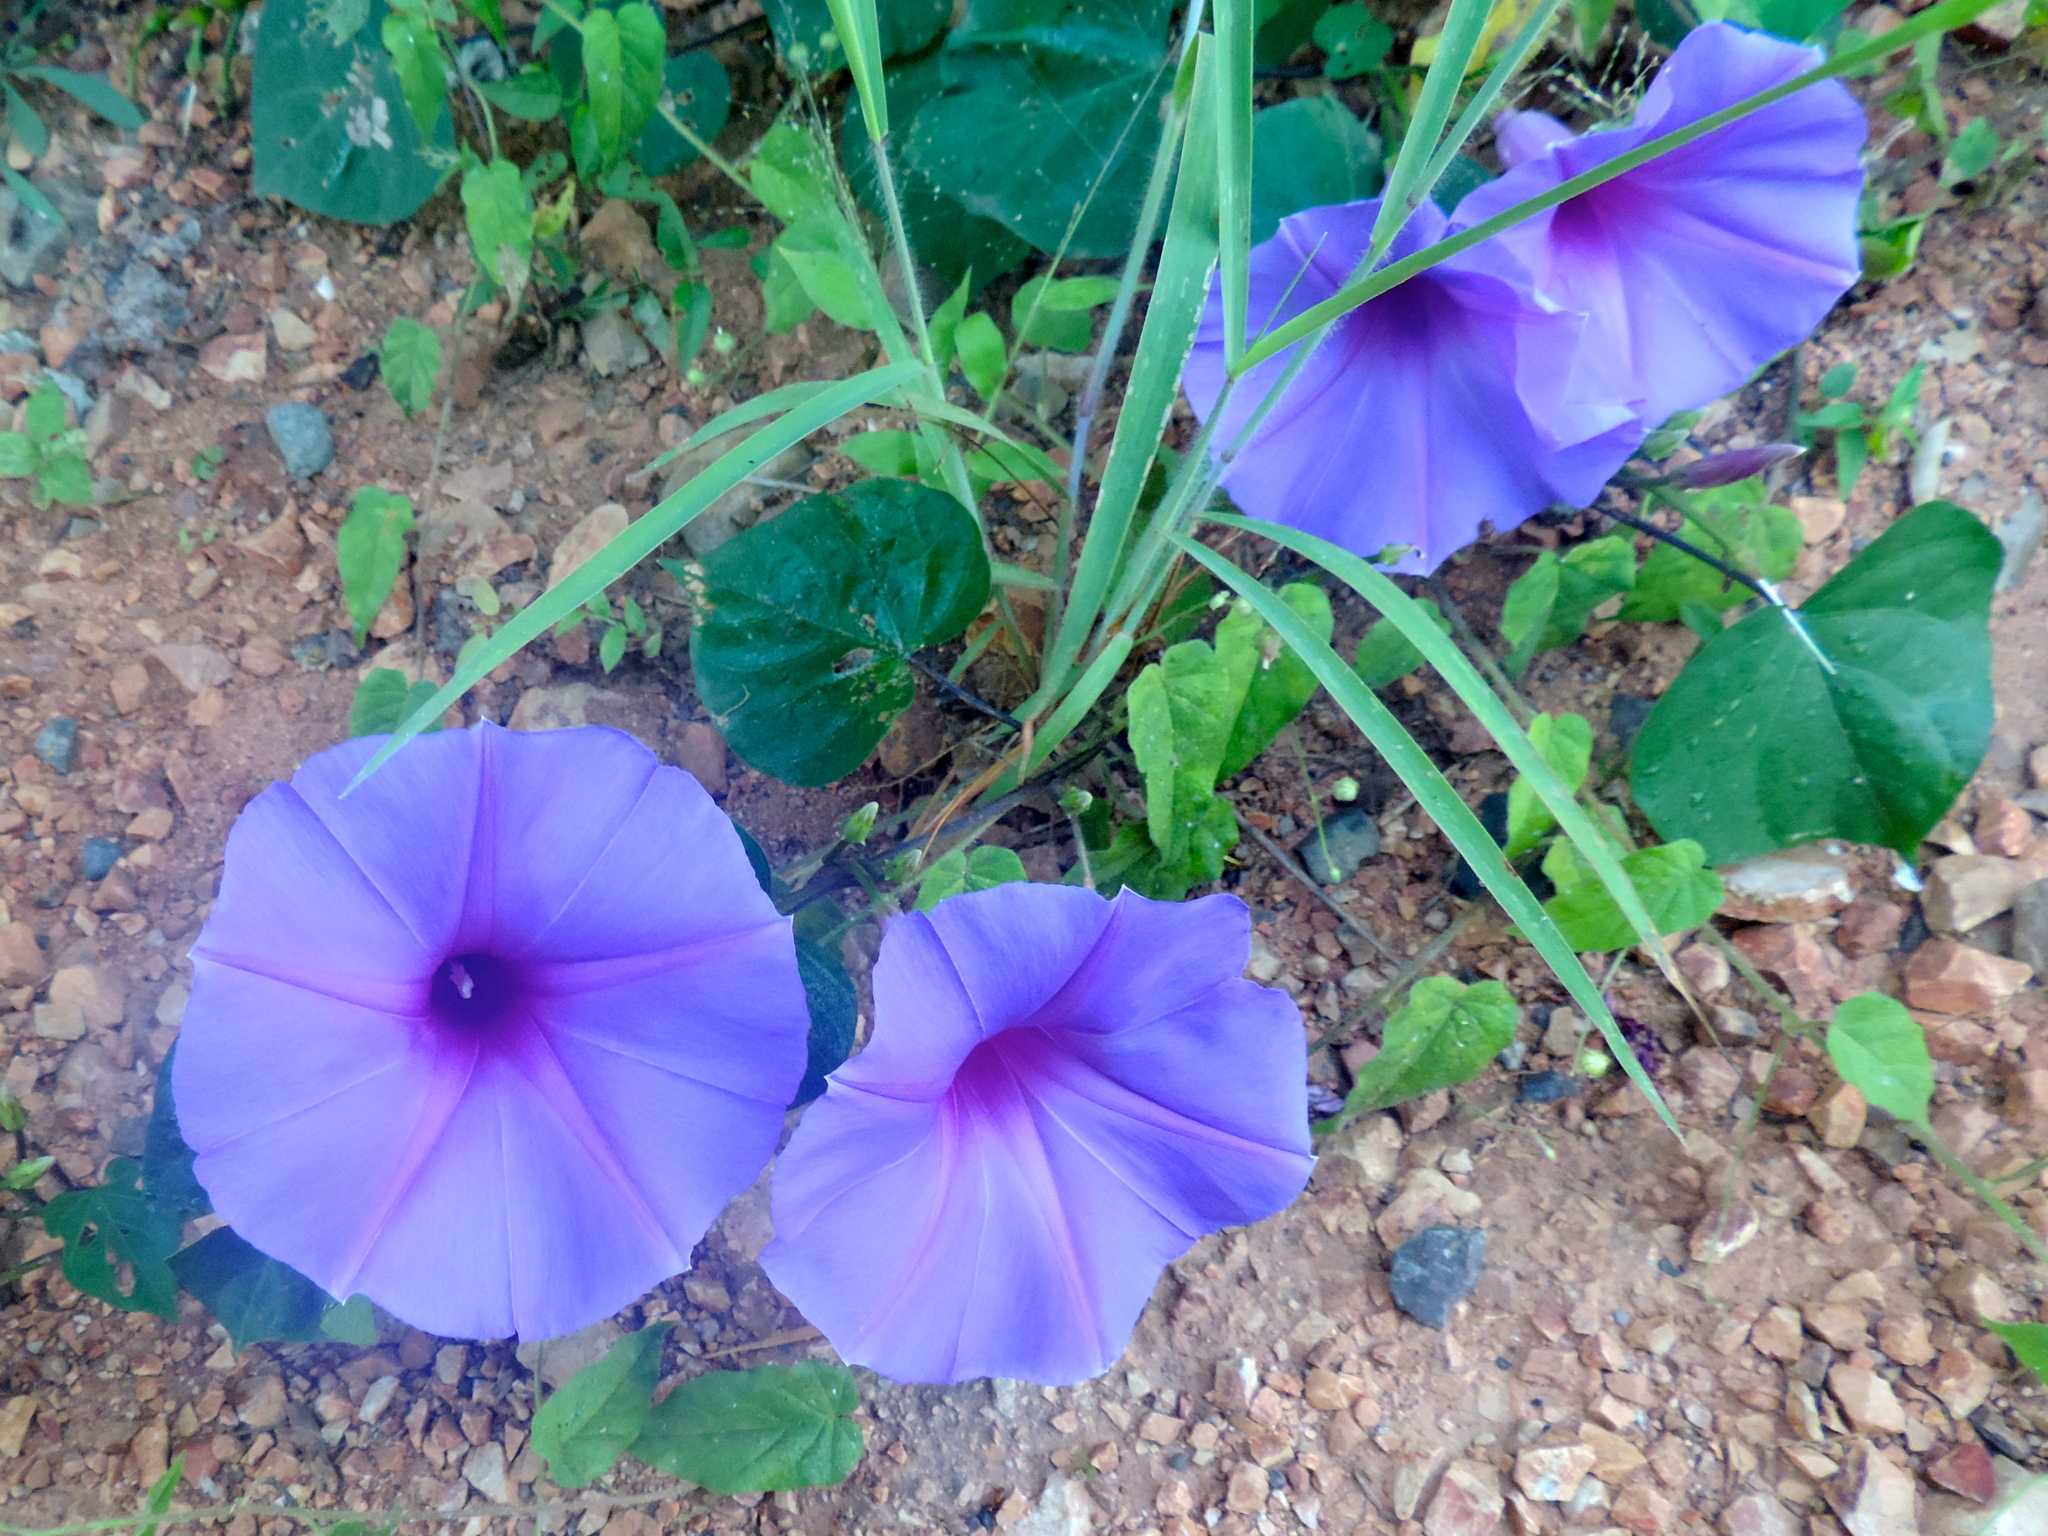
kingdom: Plantae
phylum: Tracheophyta
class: Magnoliopsida
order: Solanales
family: Convolvulaceae
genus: Ipomoea
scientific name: Ipomoea pedicellaris
